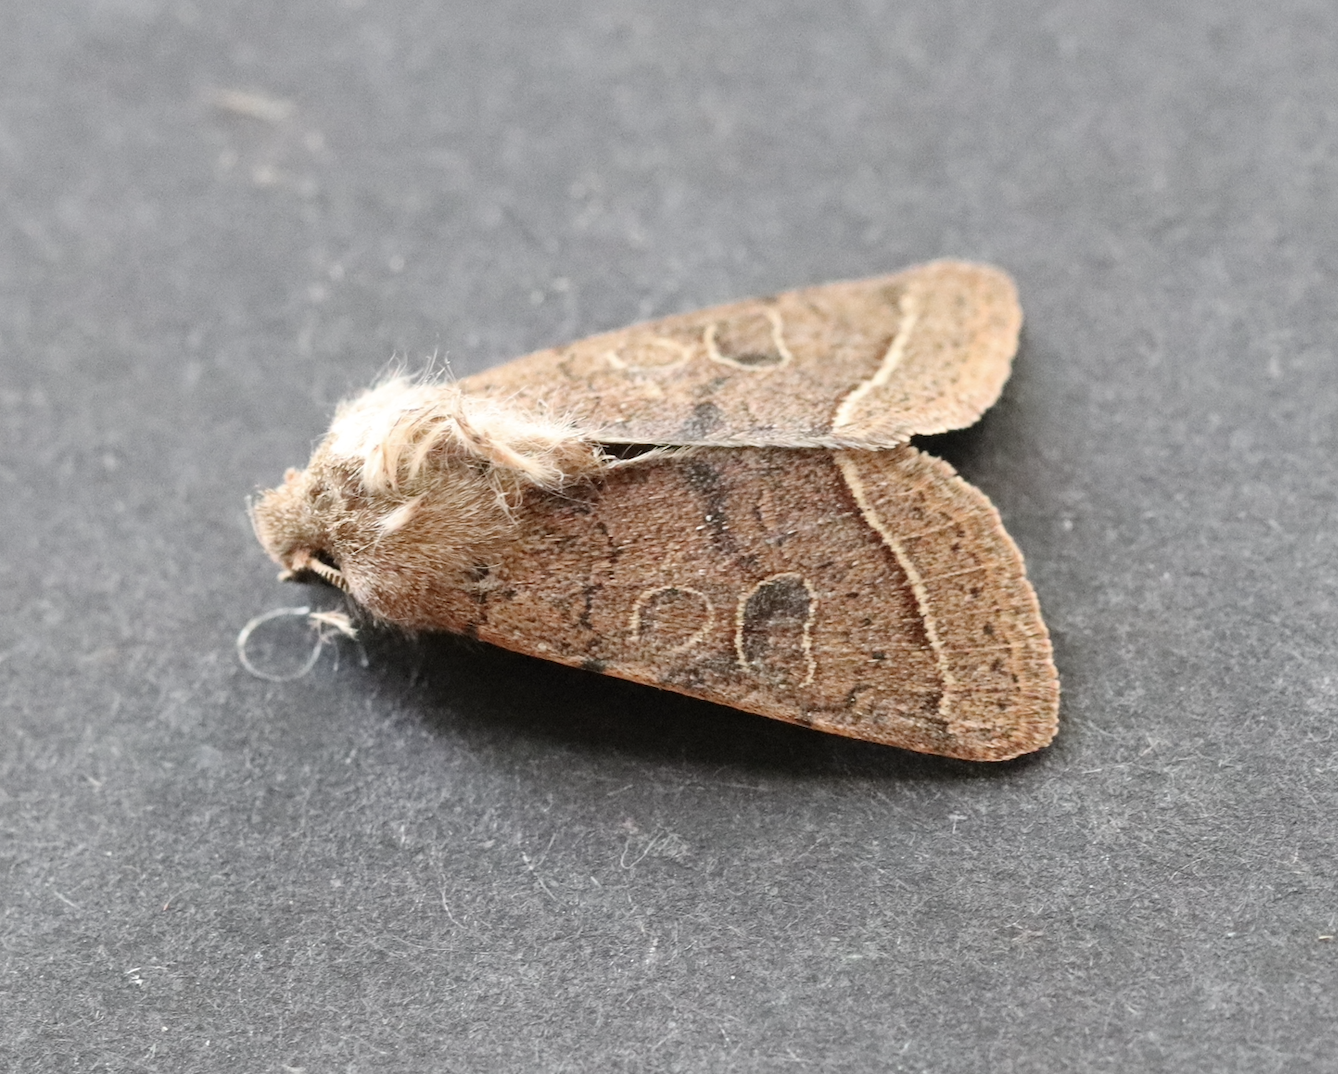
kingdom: Animalia
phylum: Arthropoda
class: Insecta
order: Lepidoptera
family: Noctuidae
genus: Orthosia
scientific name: Orthosia cerasi
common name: Common quaker
